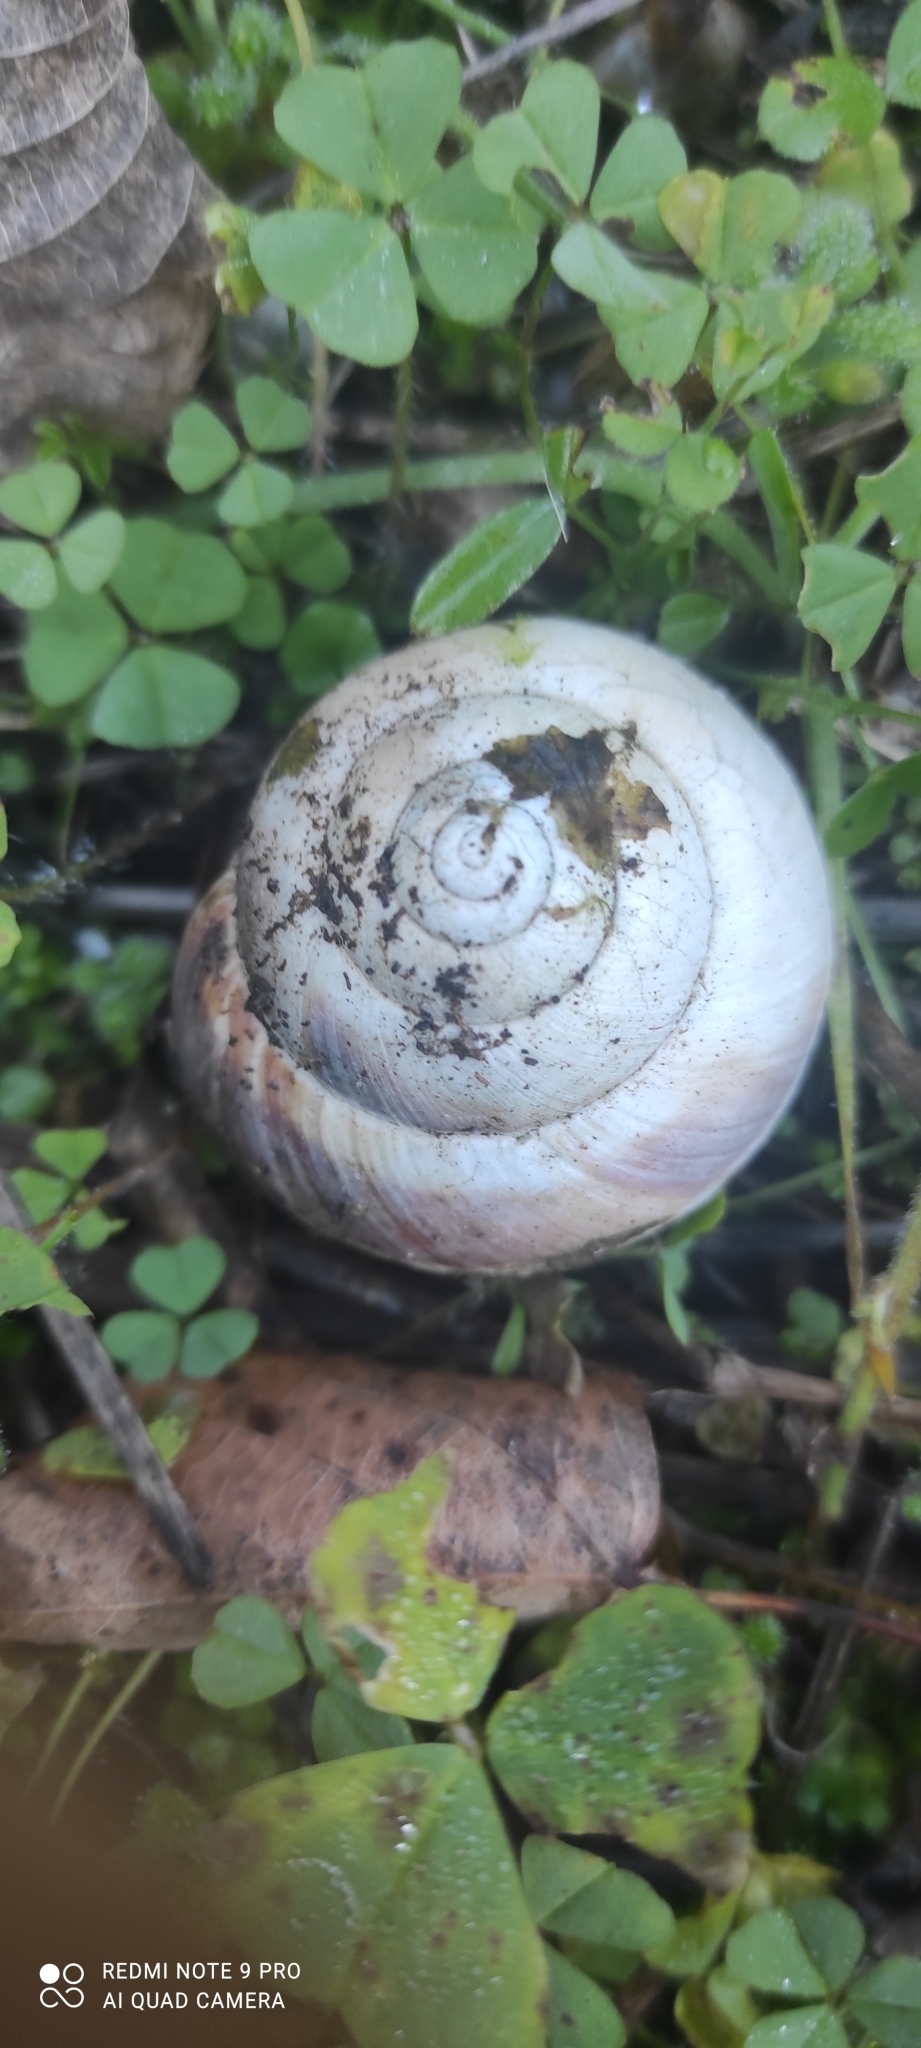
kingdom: Animalia
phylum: Mollusca
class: Gastropoda
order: Stylommatophora
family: Helicidae
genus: Helix
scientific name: Helix straminea
